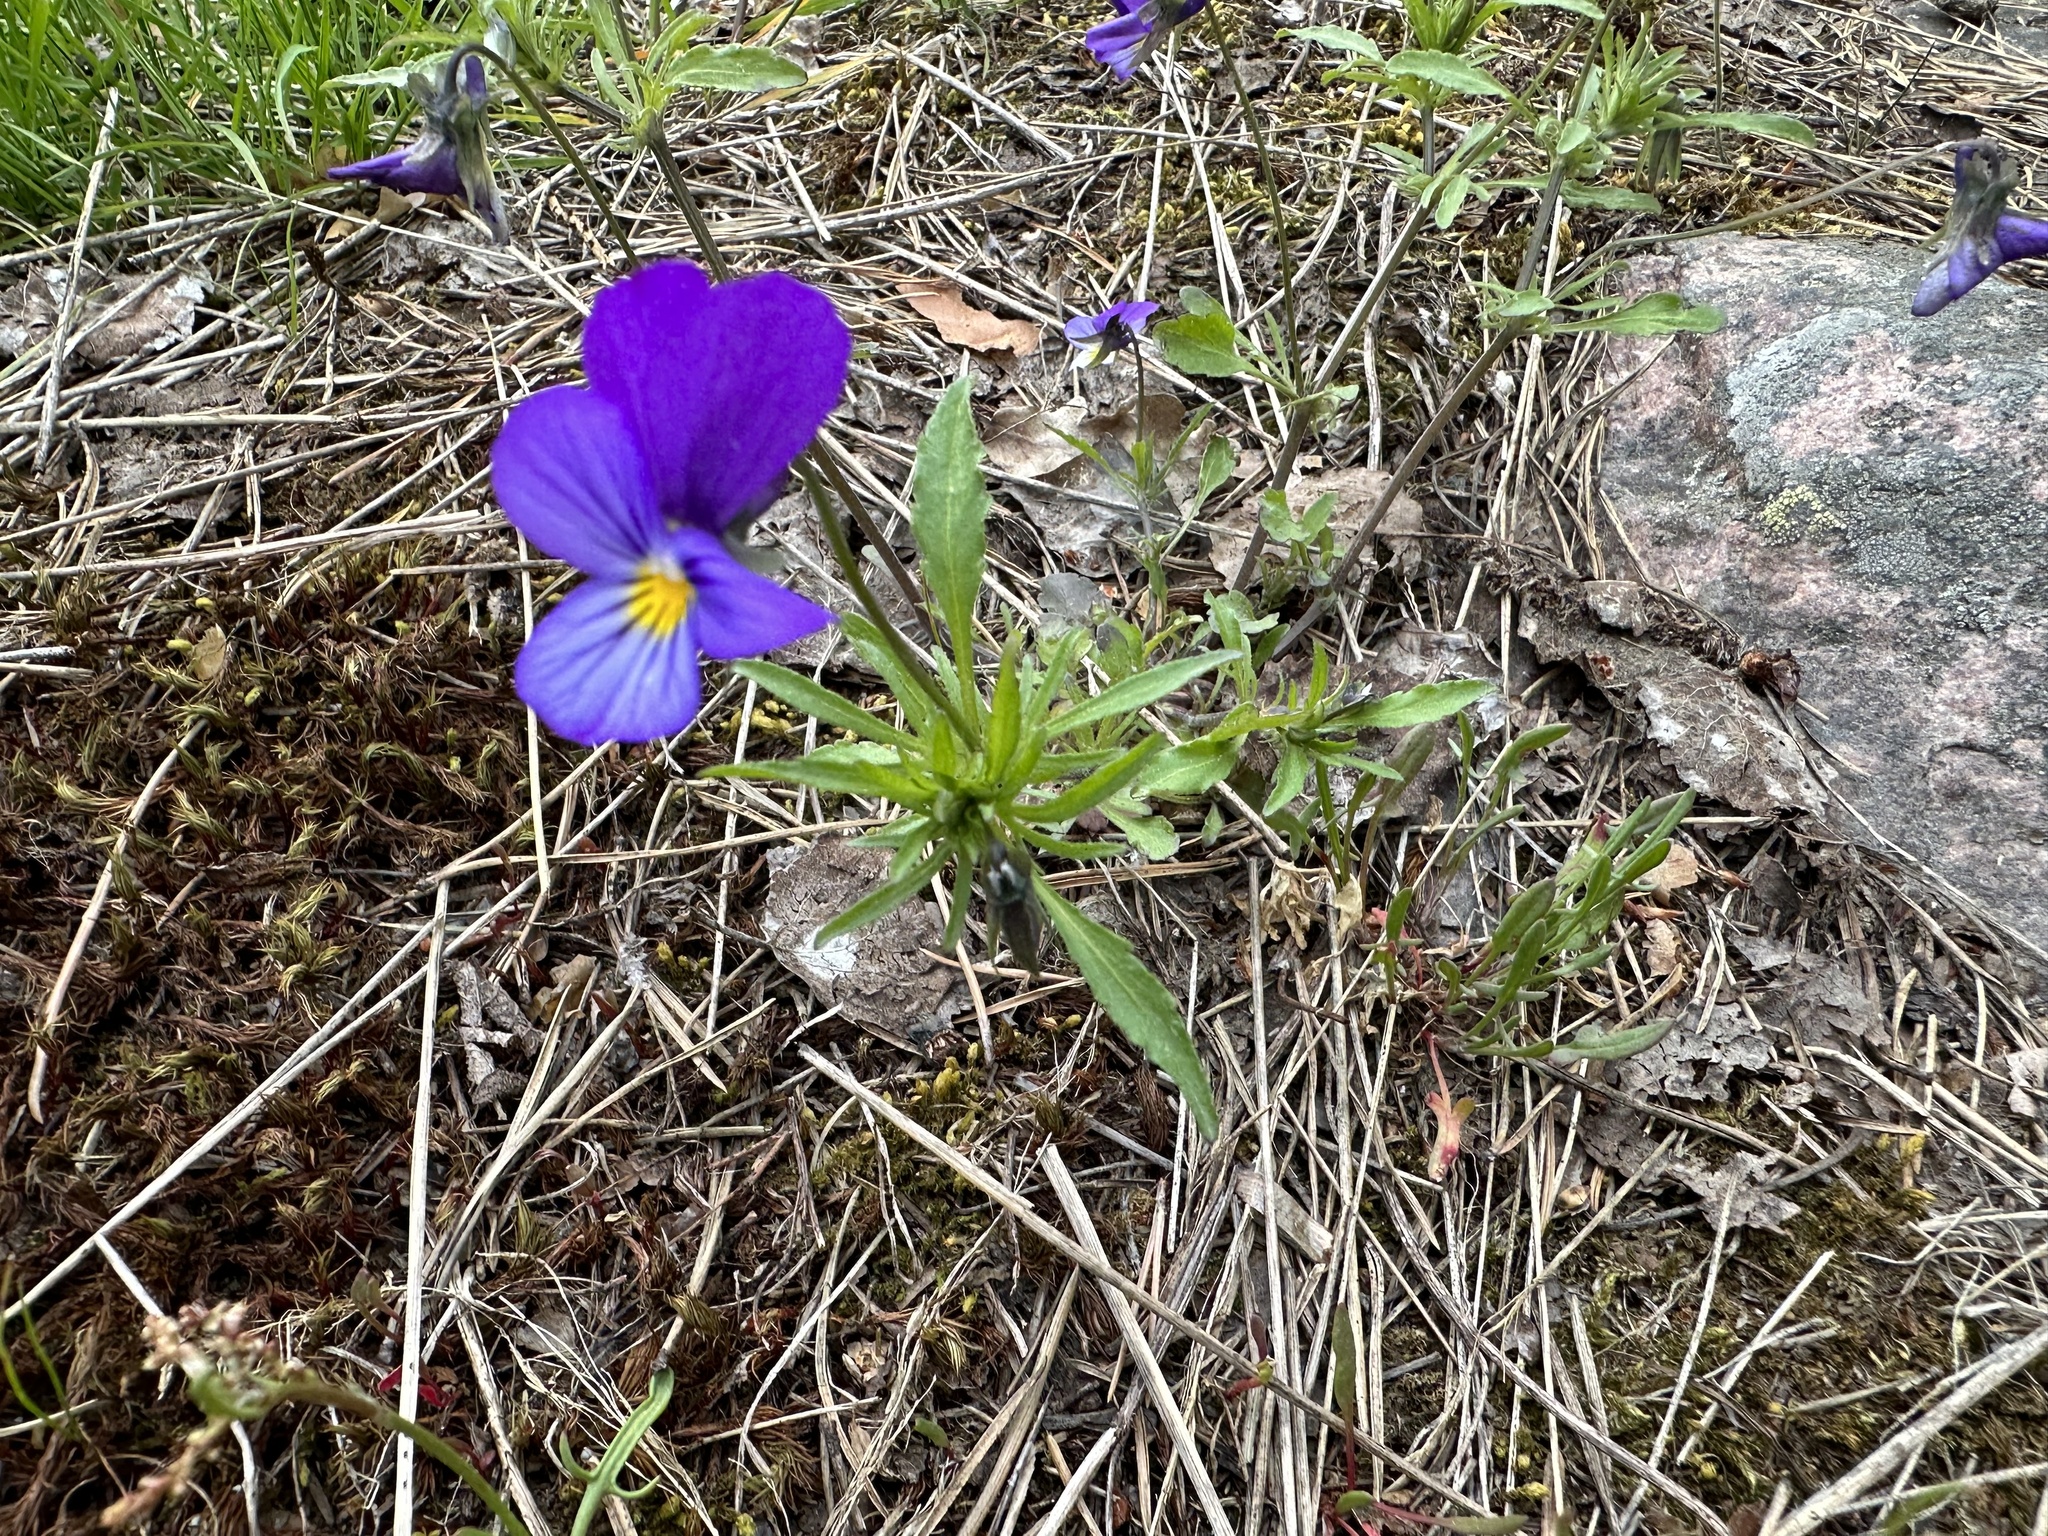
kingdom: Plantae
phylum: Tracheophyta
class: Magnoliopsida
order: Malpighiales
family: Violaceae
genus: Viola
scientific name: Viola tricolor
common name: Pansy
